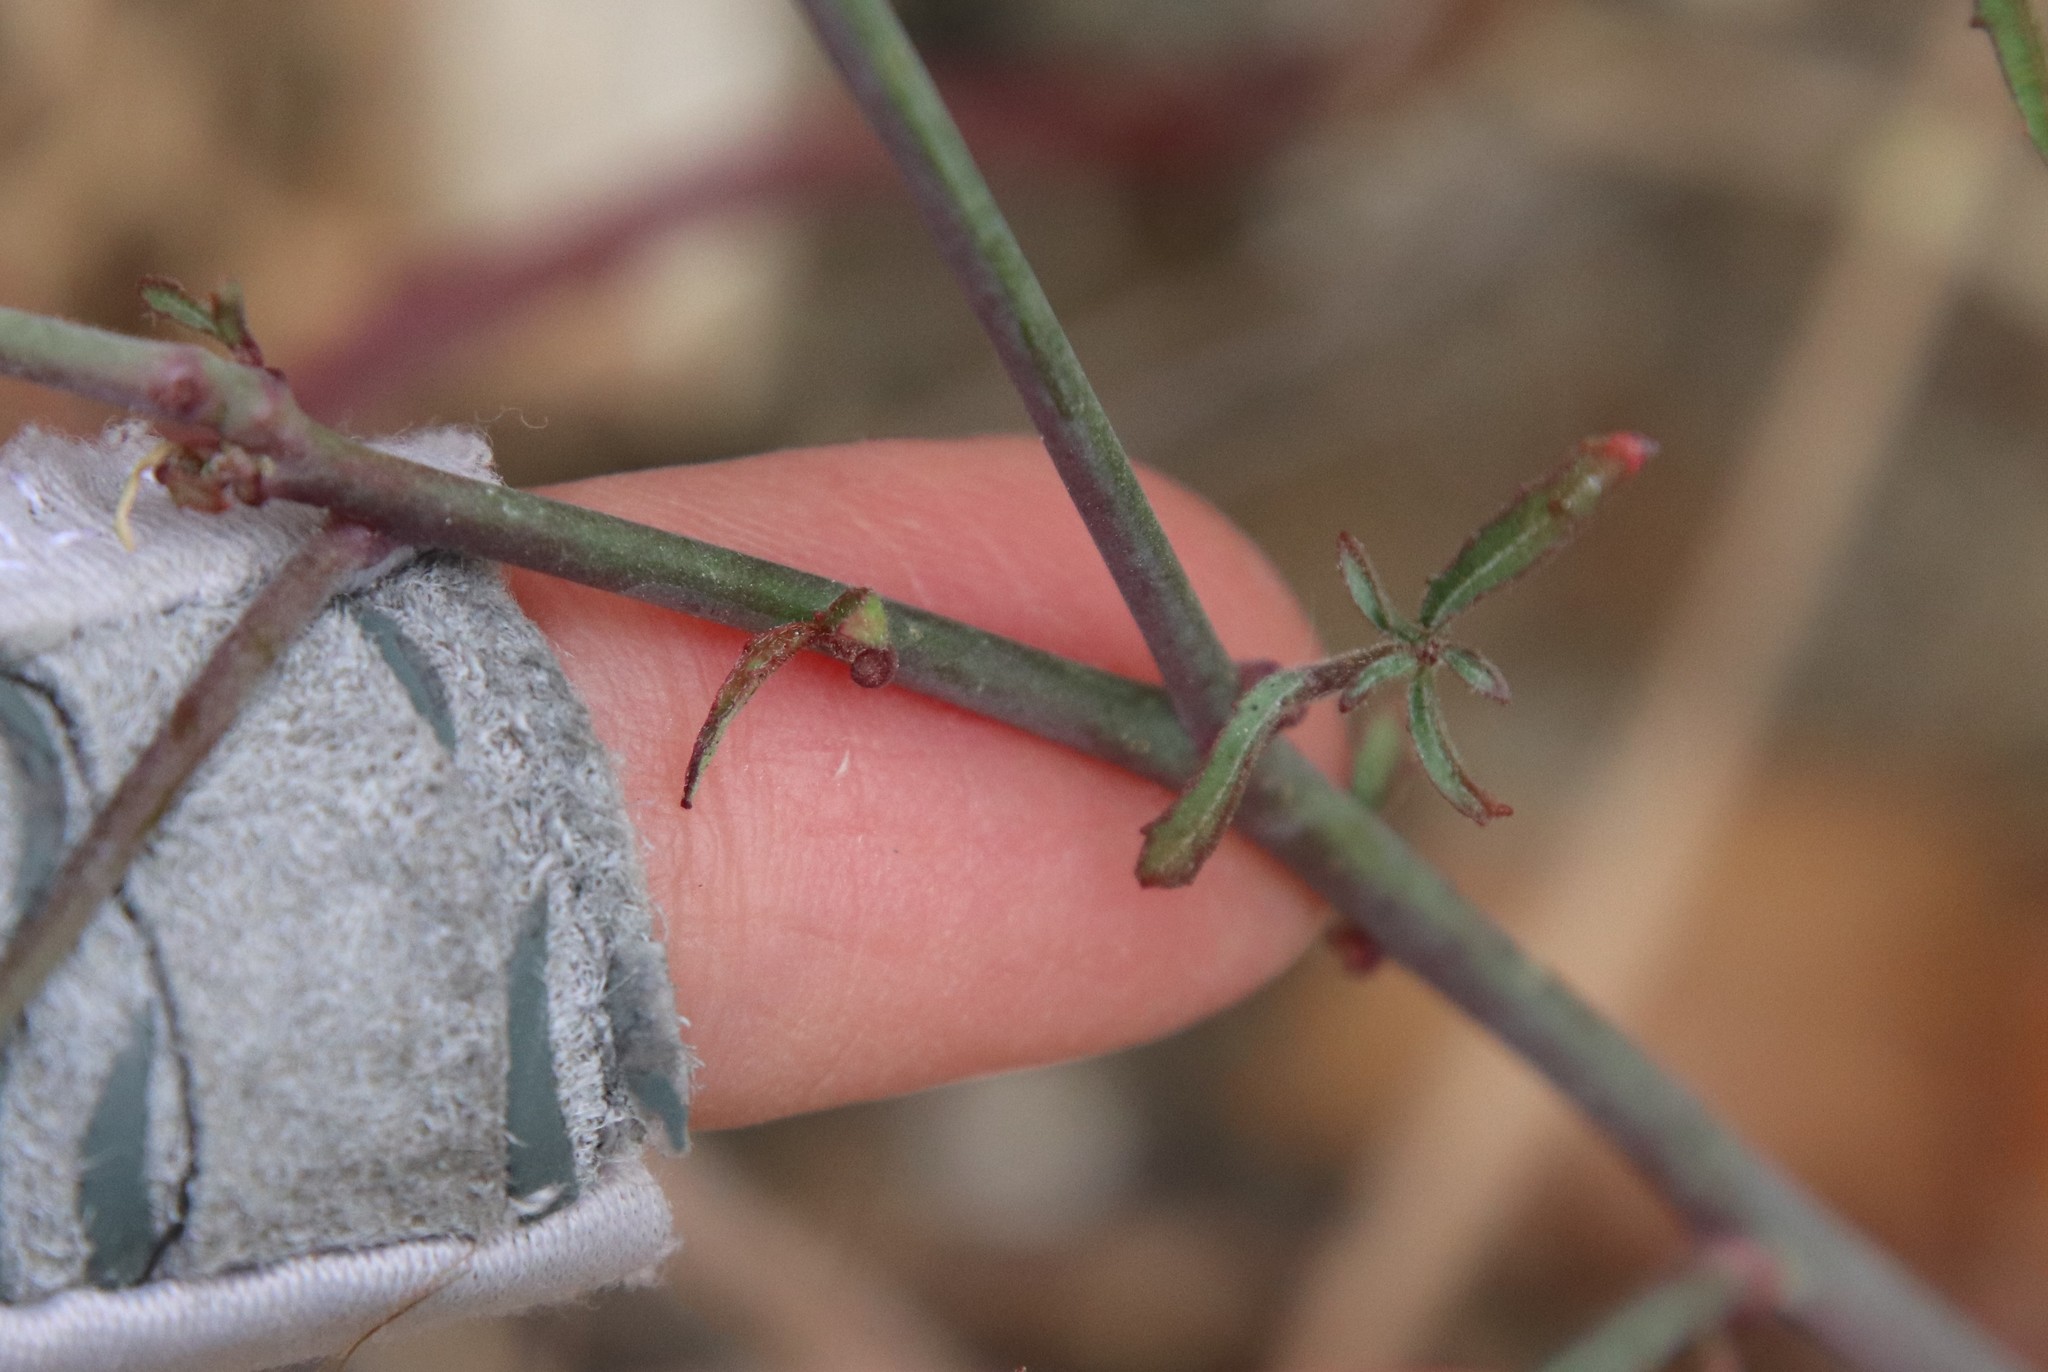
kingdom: Plantae
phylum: Tracheophyta
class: Magnoliopsida
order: Myrtales
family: Onagraceae
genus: Eulobus
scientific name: Eulobus californicus
